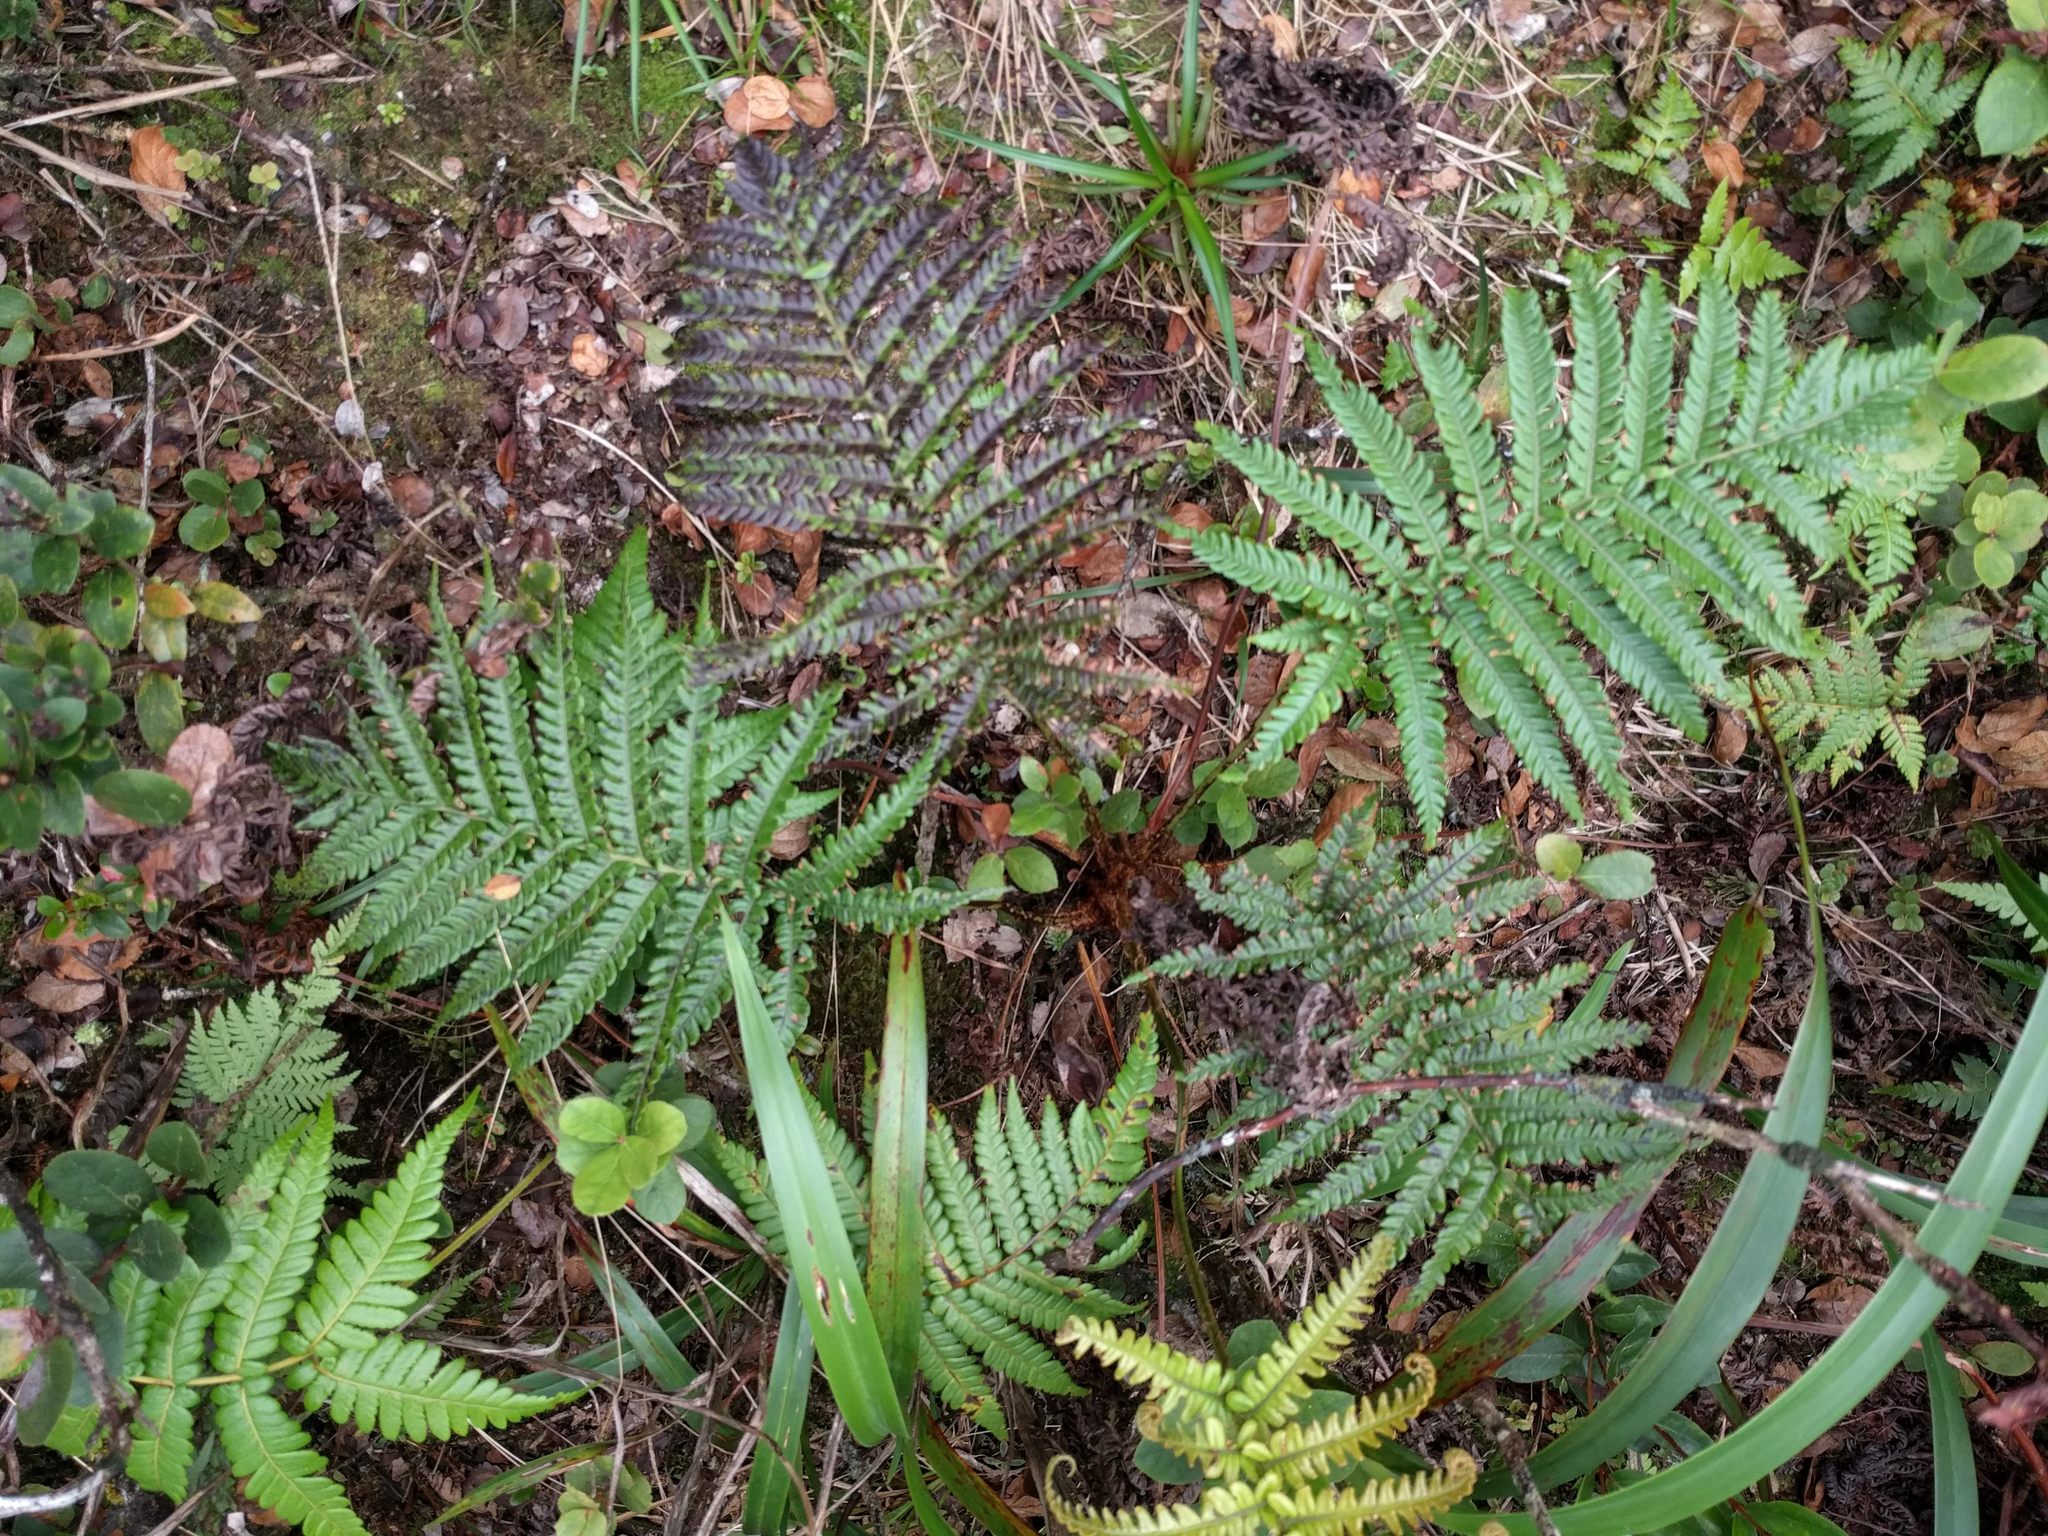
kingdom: Plantae
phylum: Tracheophyta
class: Polypodiopsida
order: Polypodiales
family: Blechnaceae
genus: Sadleria
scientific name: Sadleria pallida
